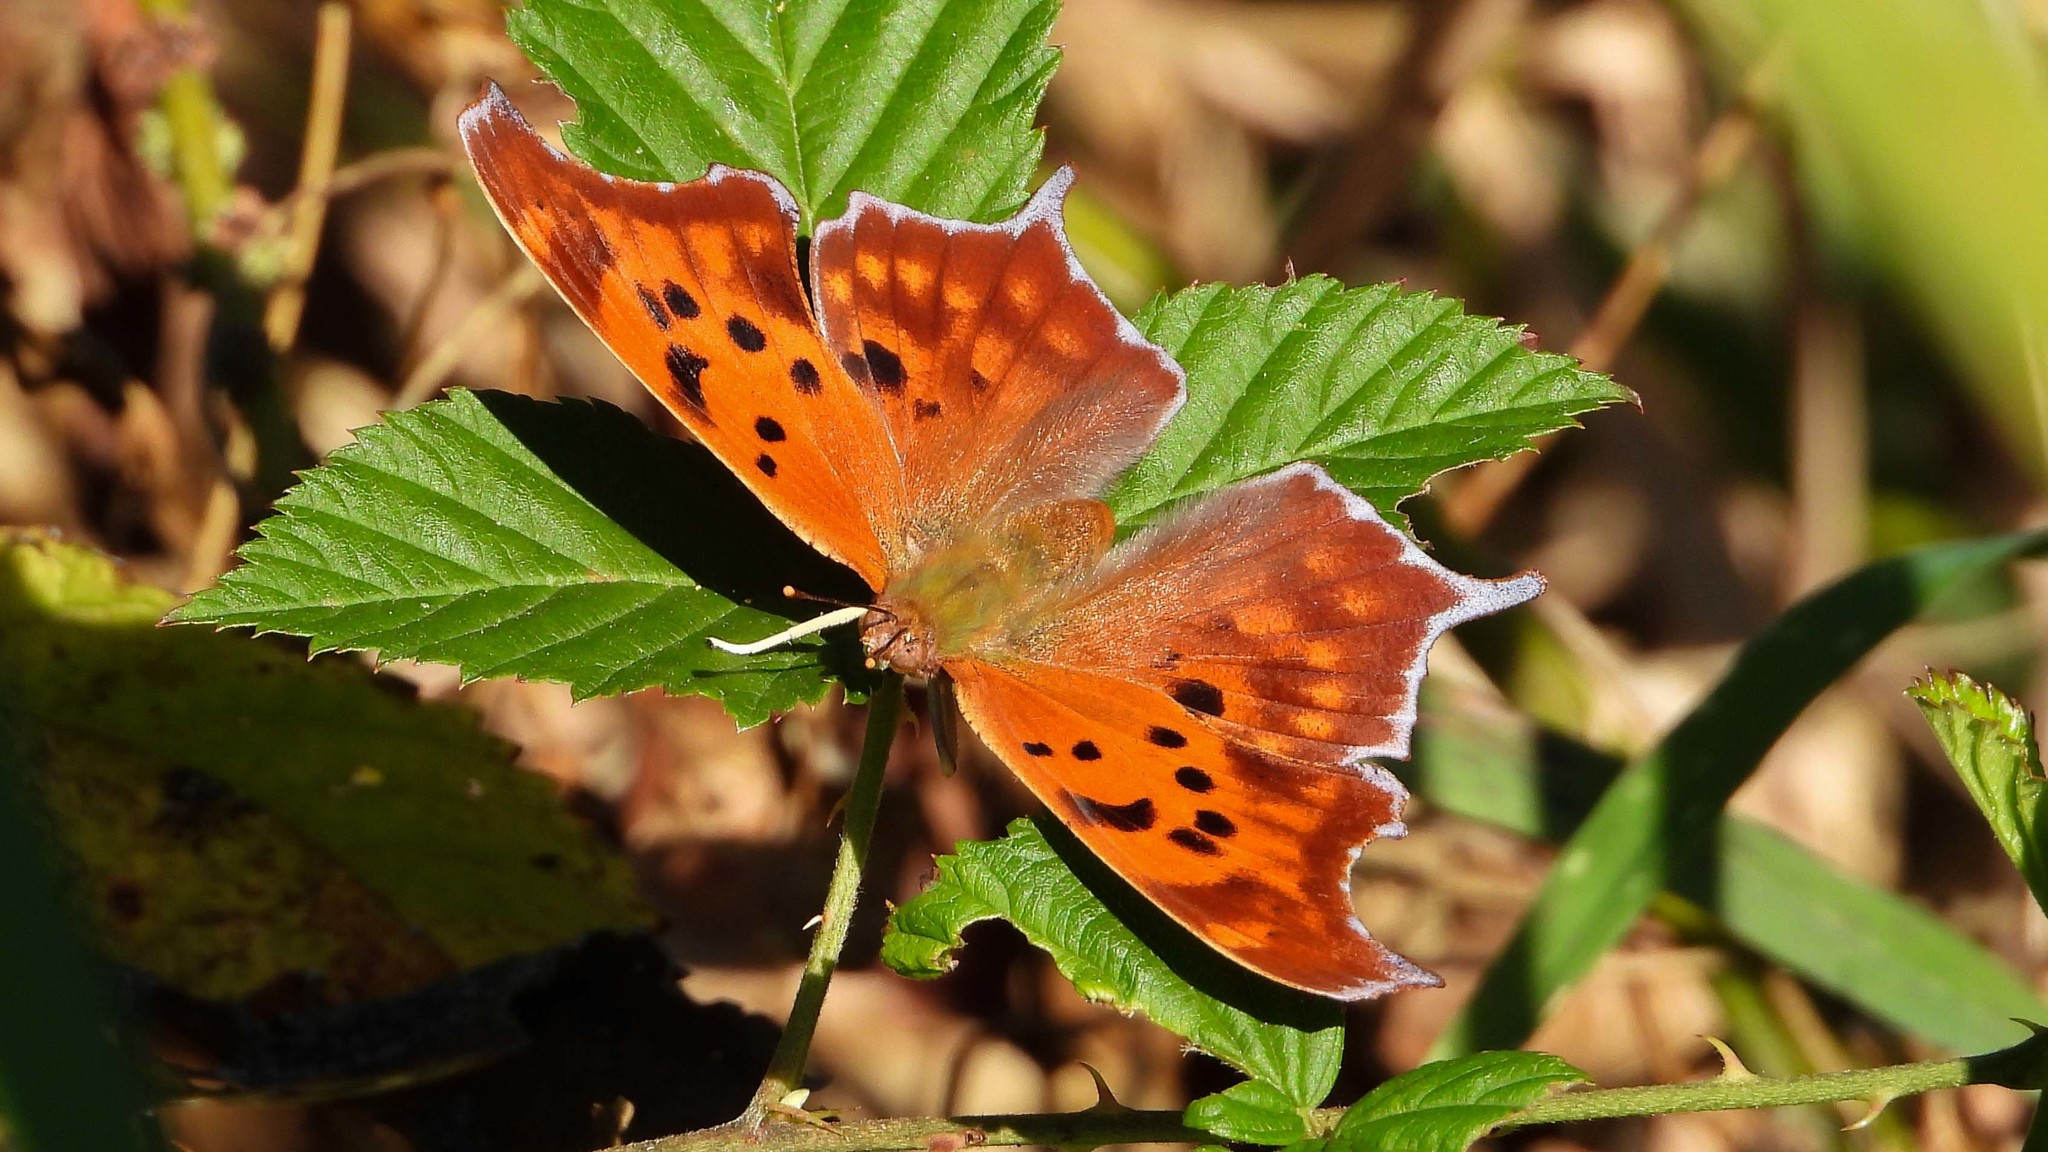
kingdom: Animalia
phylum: Arthropoda
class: Insecta
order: Lepidoptera
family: Nymphalidae
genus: Polygonia
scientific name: Polygonia interrogationis
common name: Question mark
